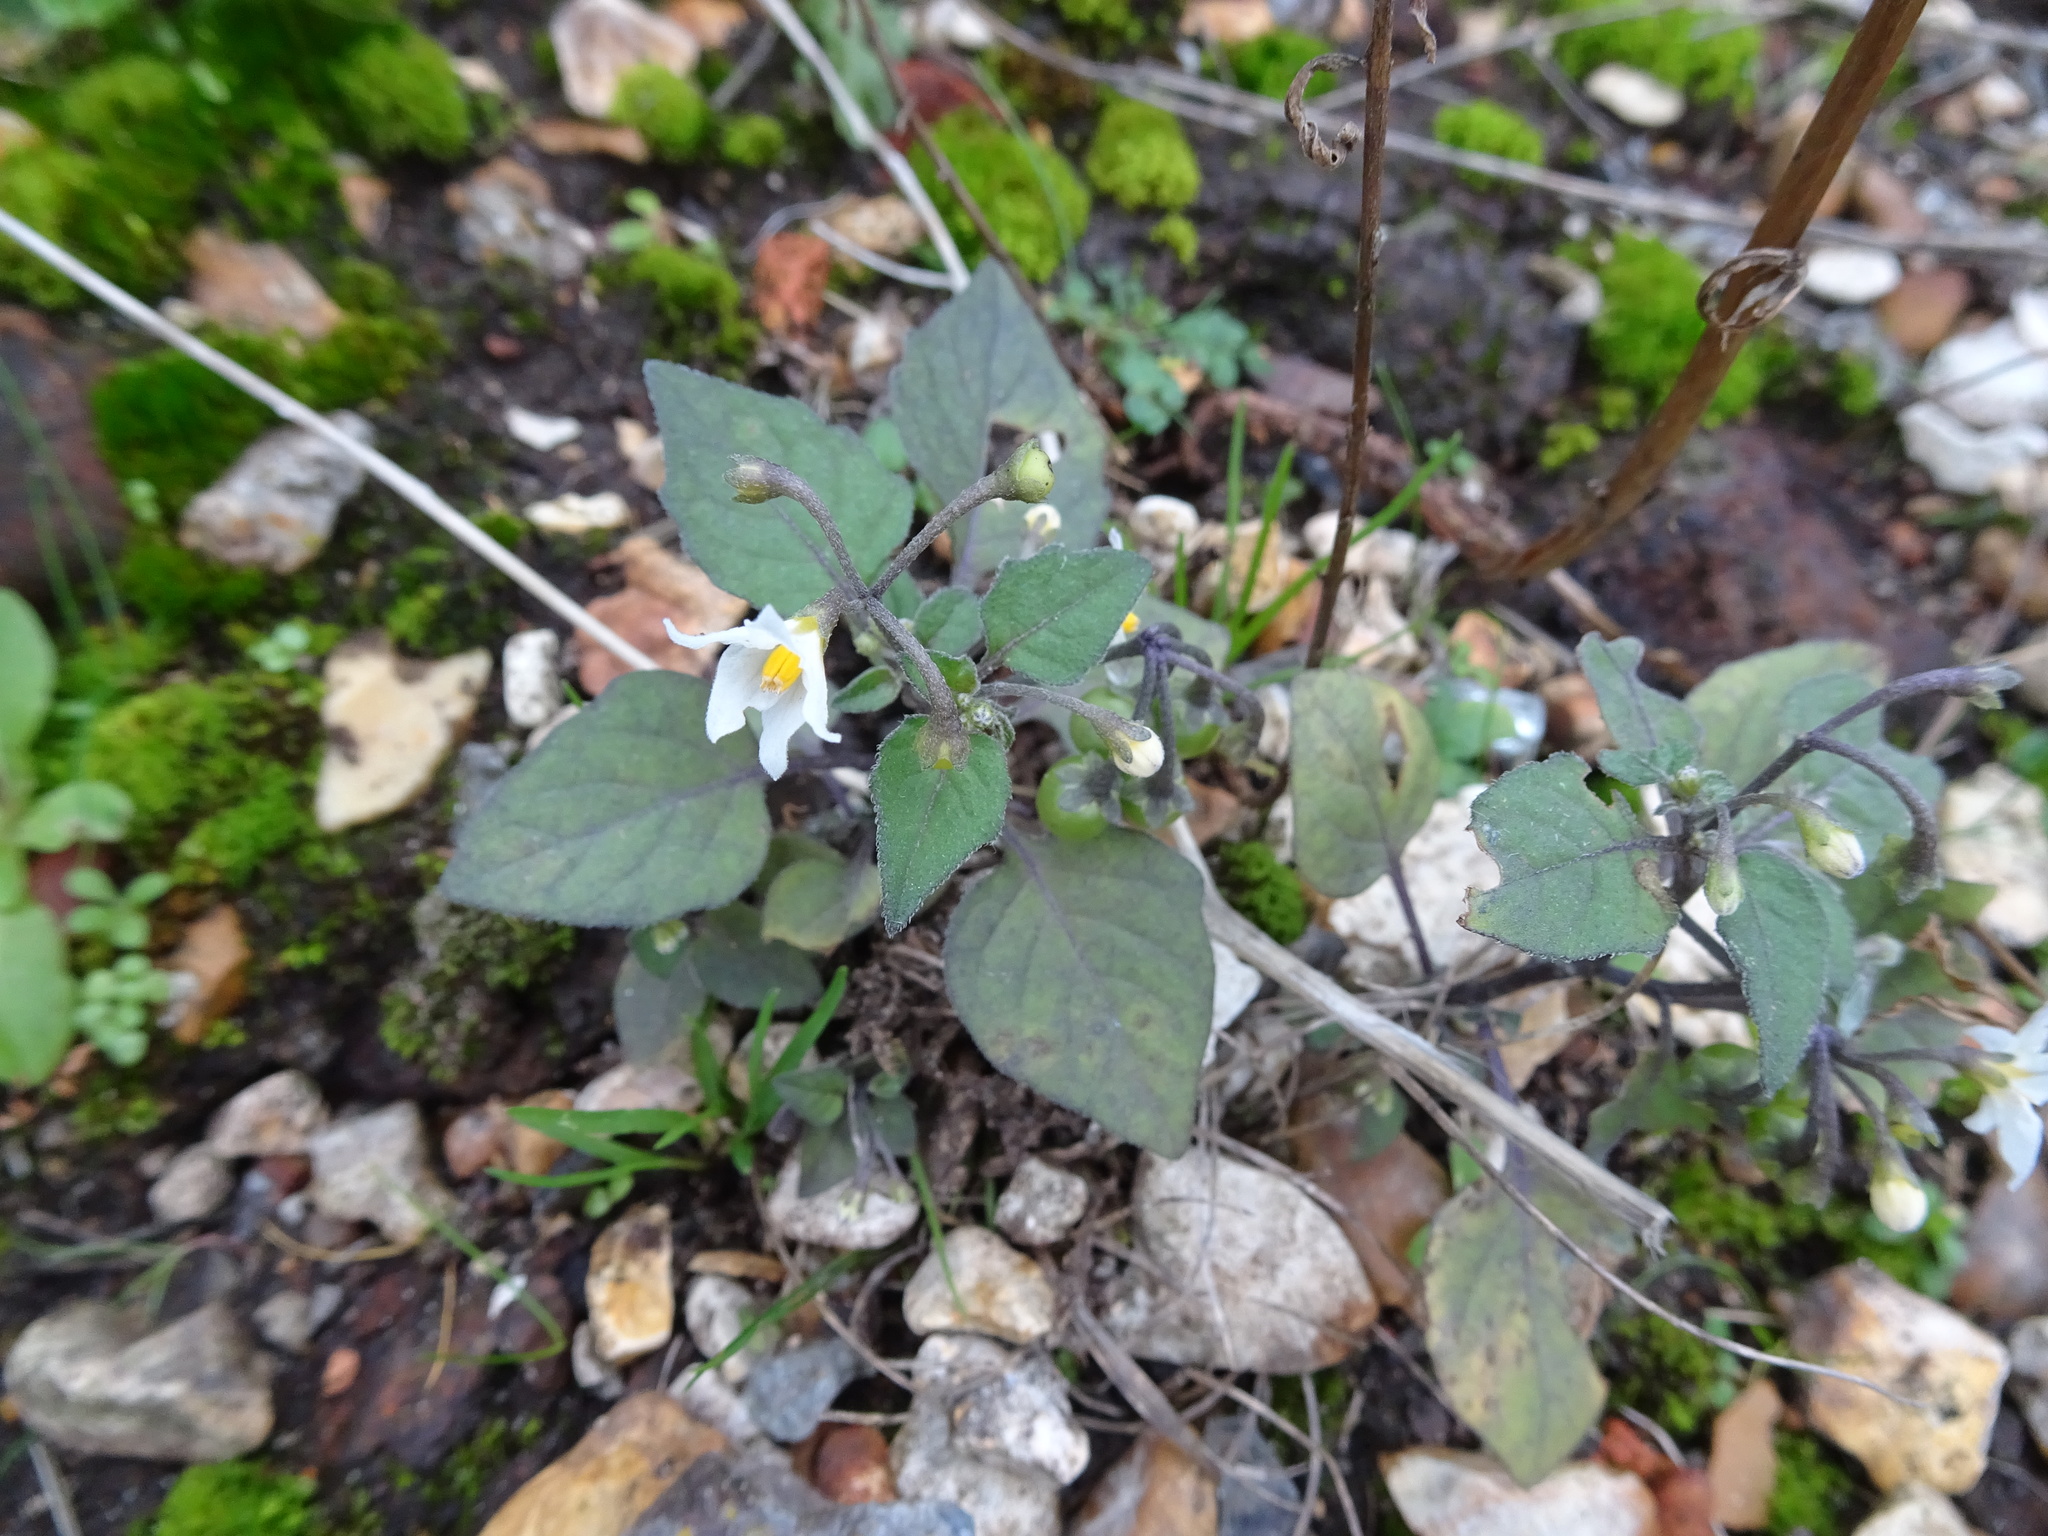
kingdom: Plantae
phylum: Tracheophyta
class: Magnoliopsida
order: Solanales
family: Solanaceae
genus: Solanum
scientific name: Solanum nigrum
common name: Black nightshade
